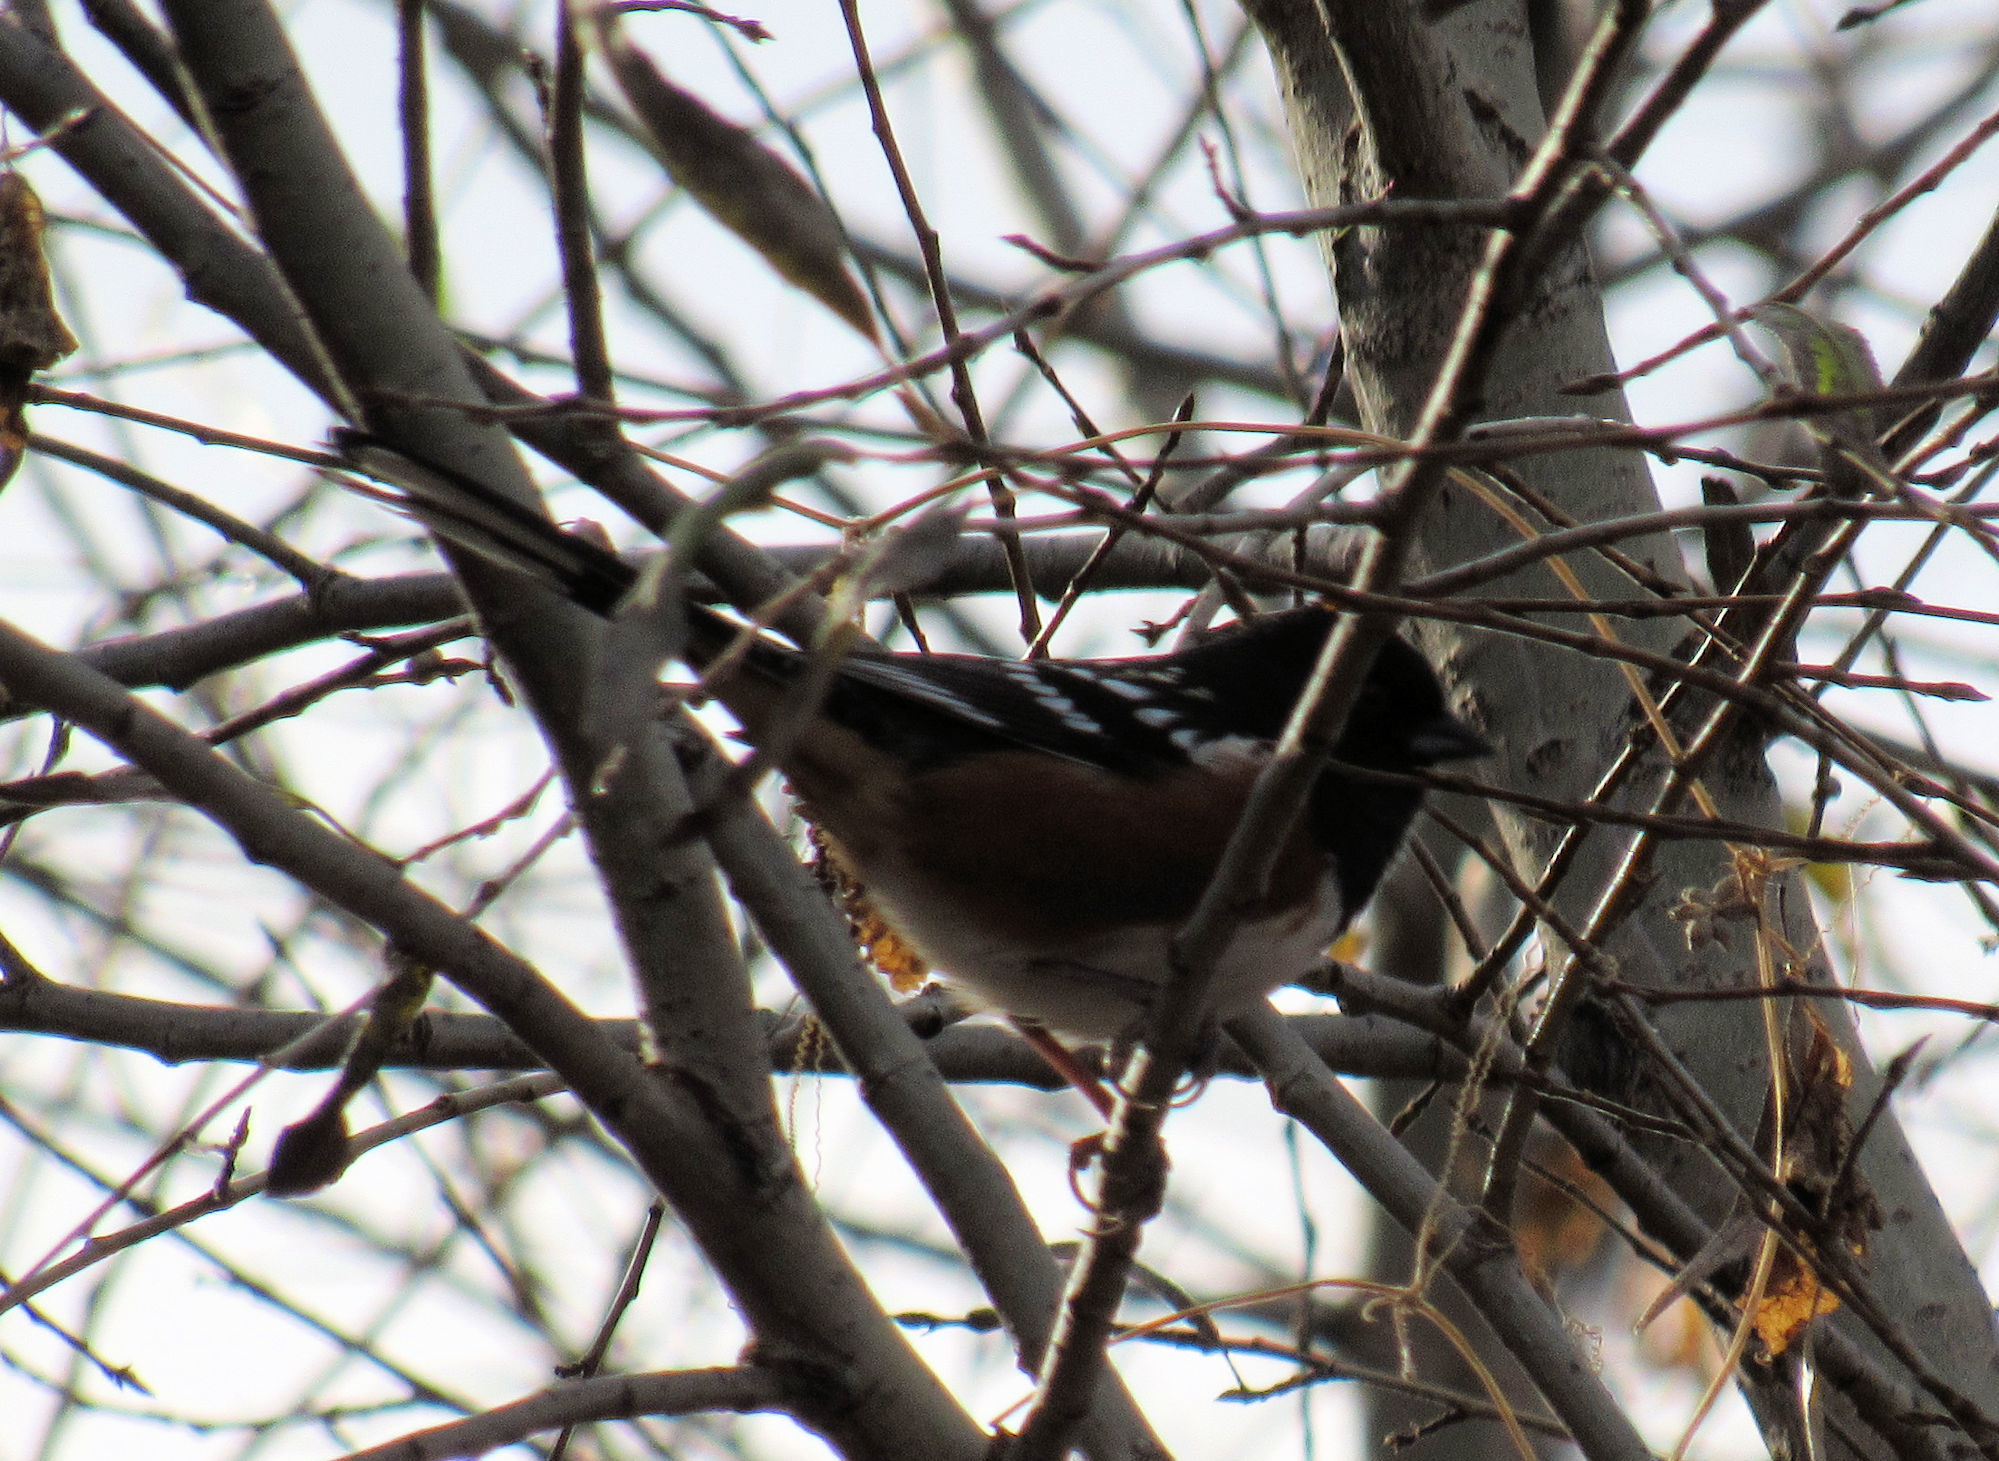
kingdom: Animalia
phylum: Chordata
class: Aves
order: Passeriformes
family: Passerellidae
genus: Pipilo
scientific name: Pipilo maculatus
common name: Spotted towhee
